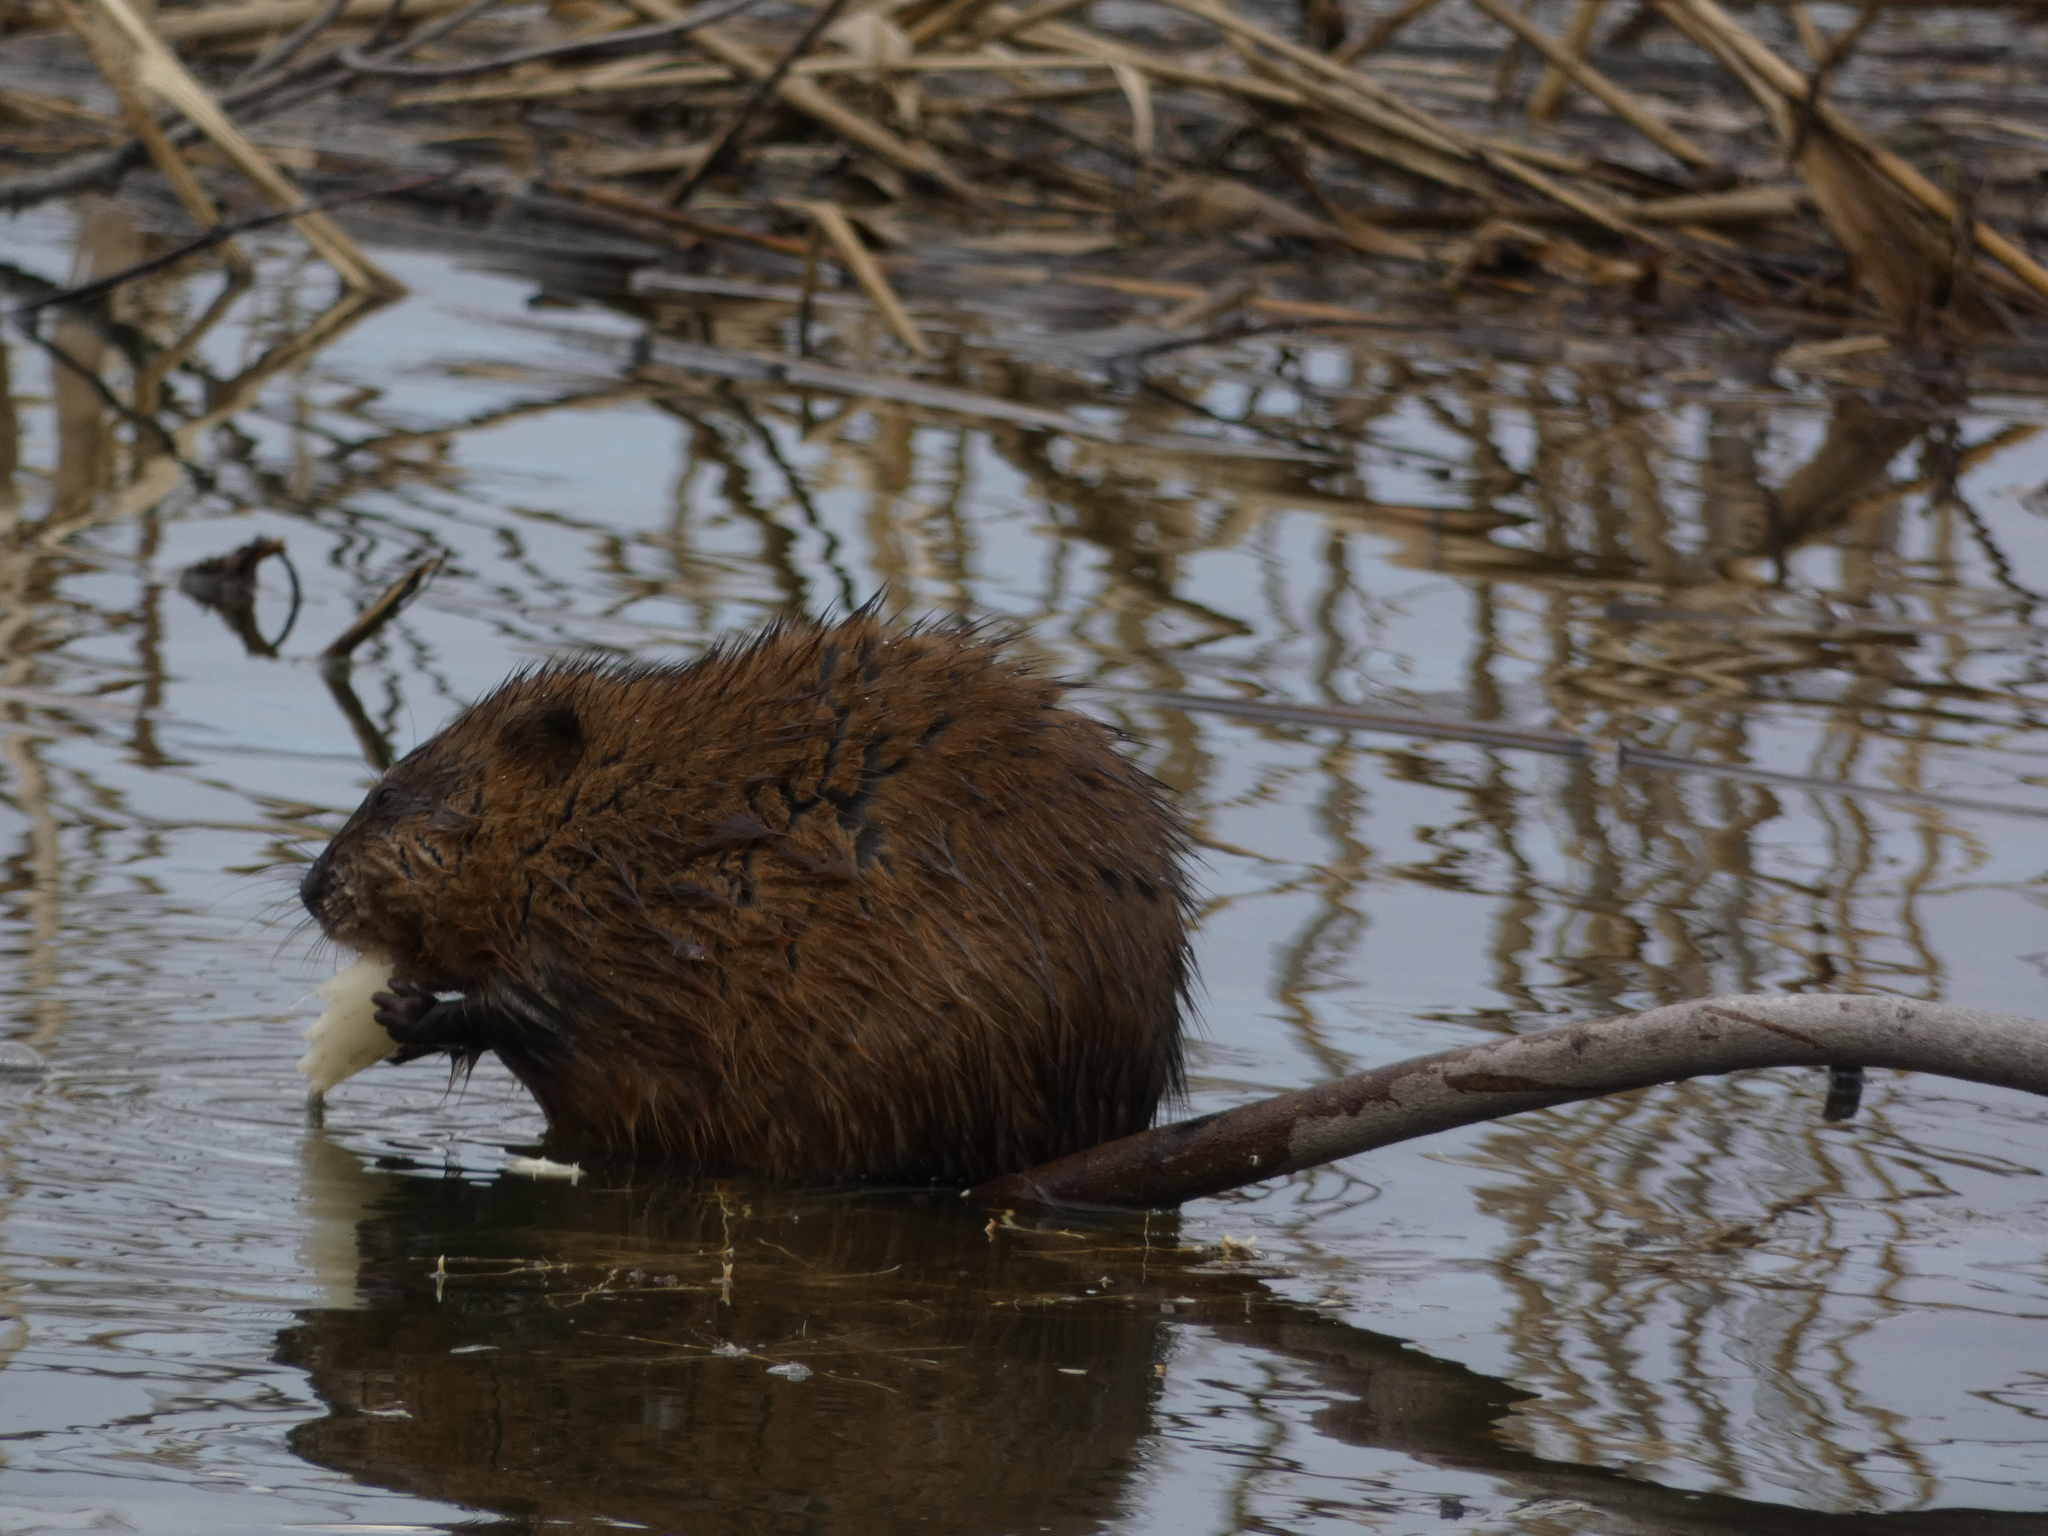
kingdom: Animalia
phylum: Chordata
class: Mammalia
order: Rodentia
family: Cricetidae
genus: Ondatra
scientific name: Ondatra zibethicus
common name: Muskrat
